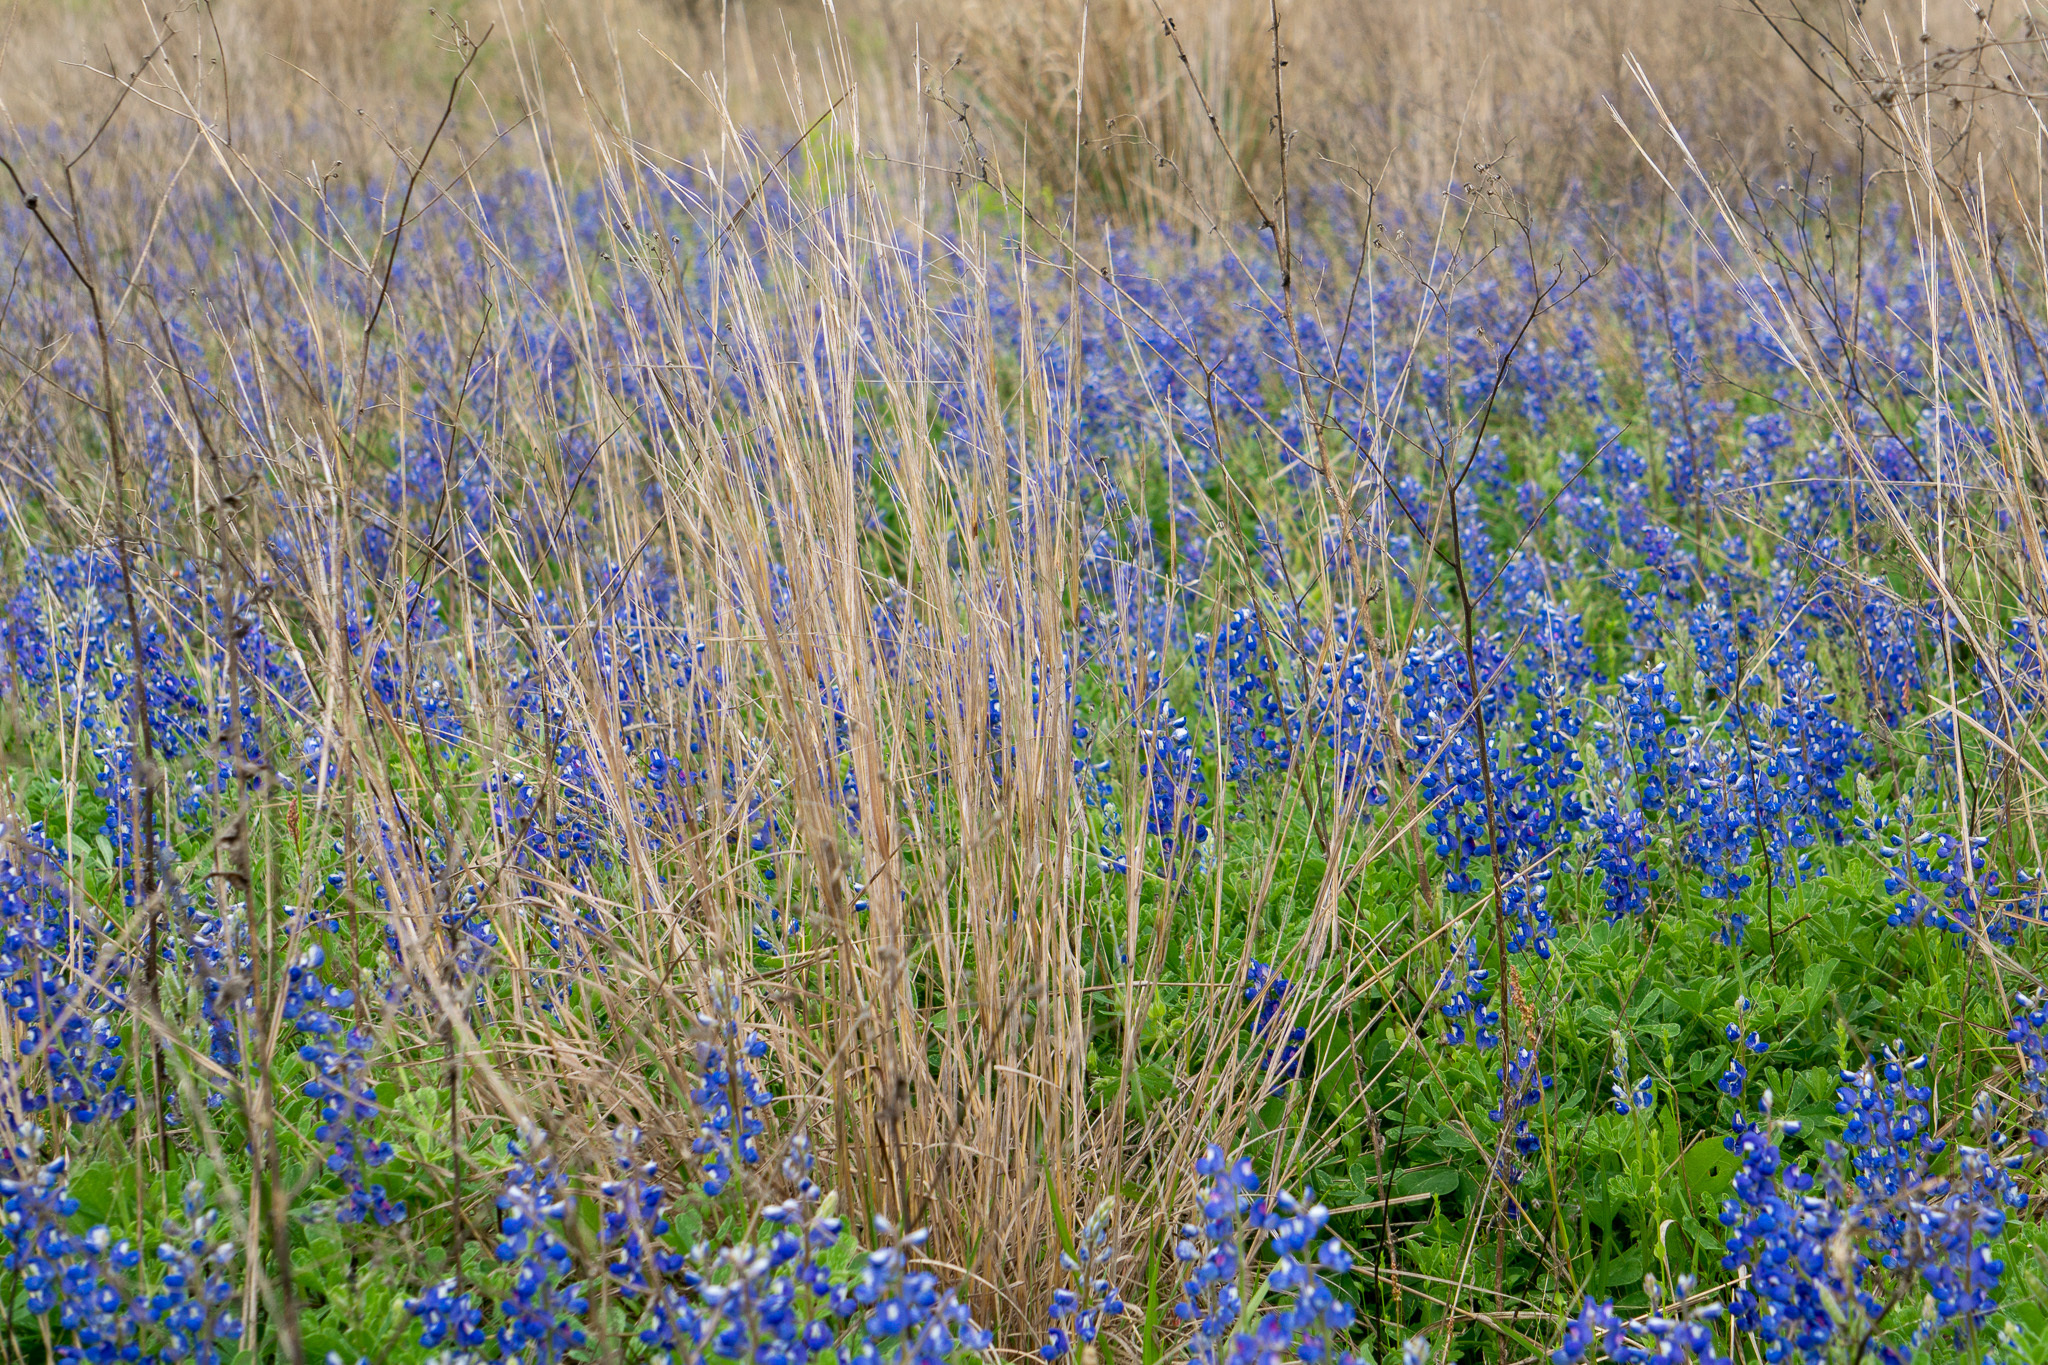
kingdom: Plantae
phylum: Tracheophyta
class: Magnoliopsida
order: Fabales
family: Fabaceae
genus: Lupinus
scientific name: Lupinus subcarnosus
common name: Texas bluebonnet
